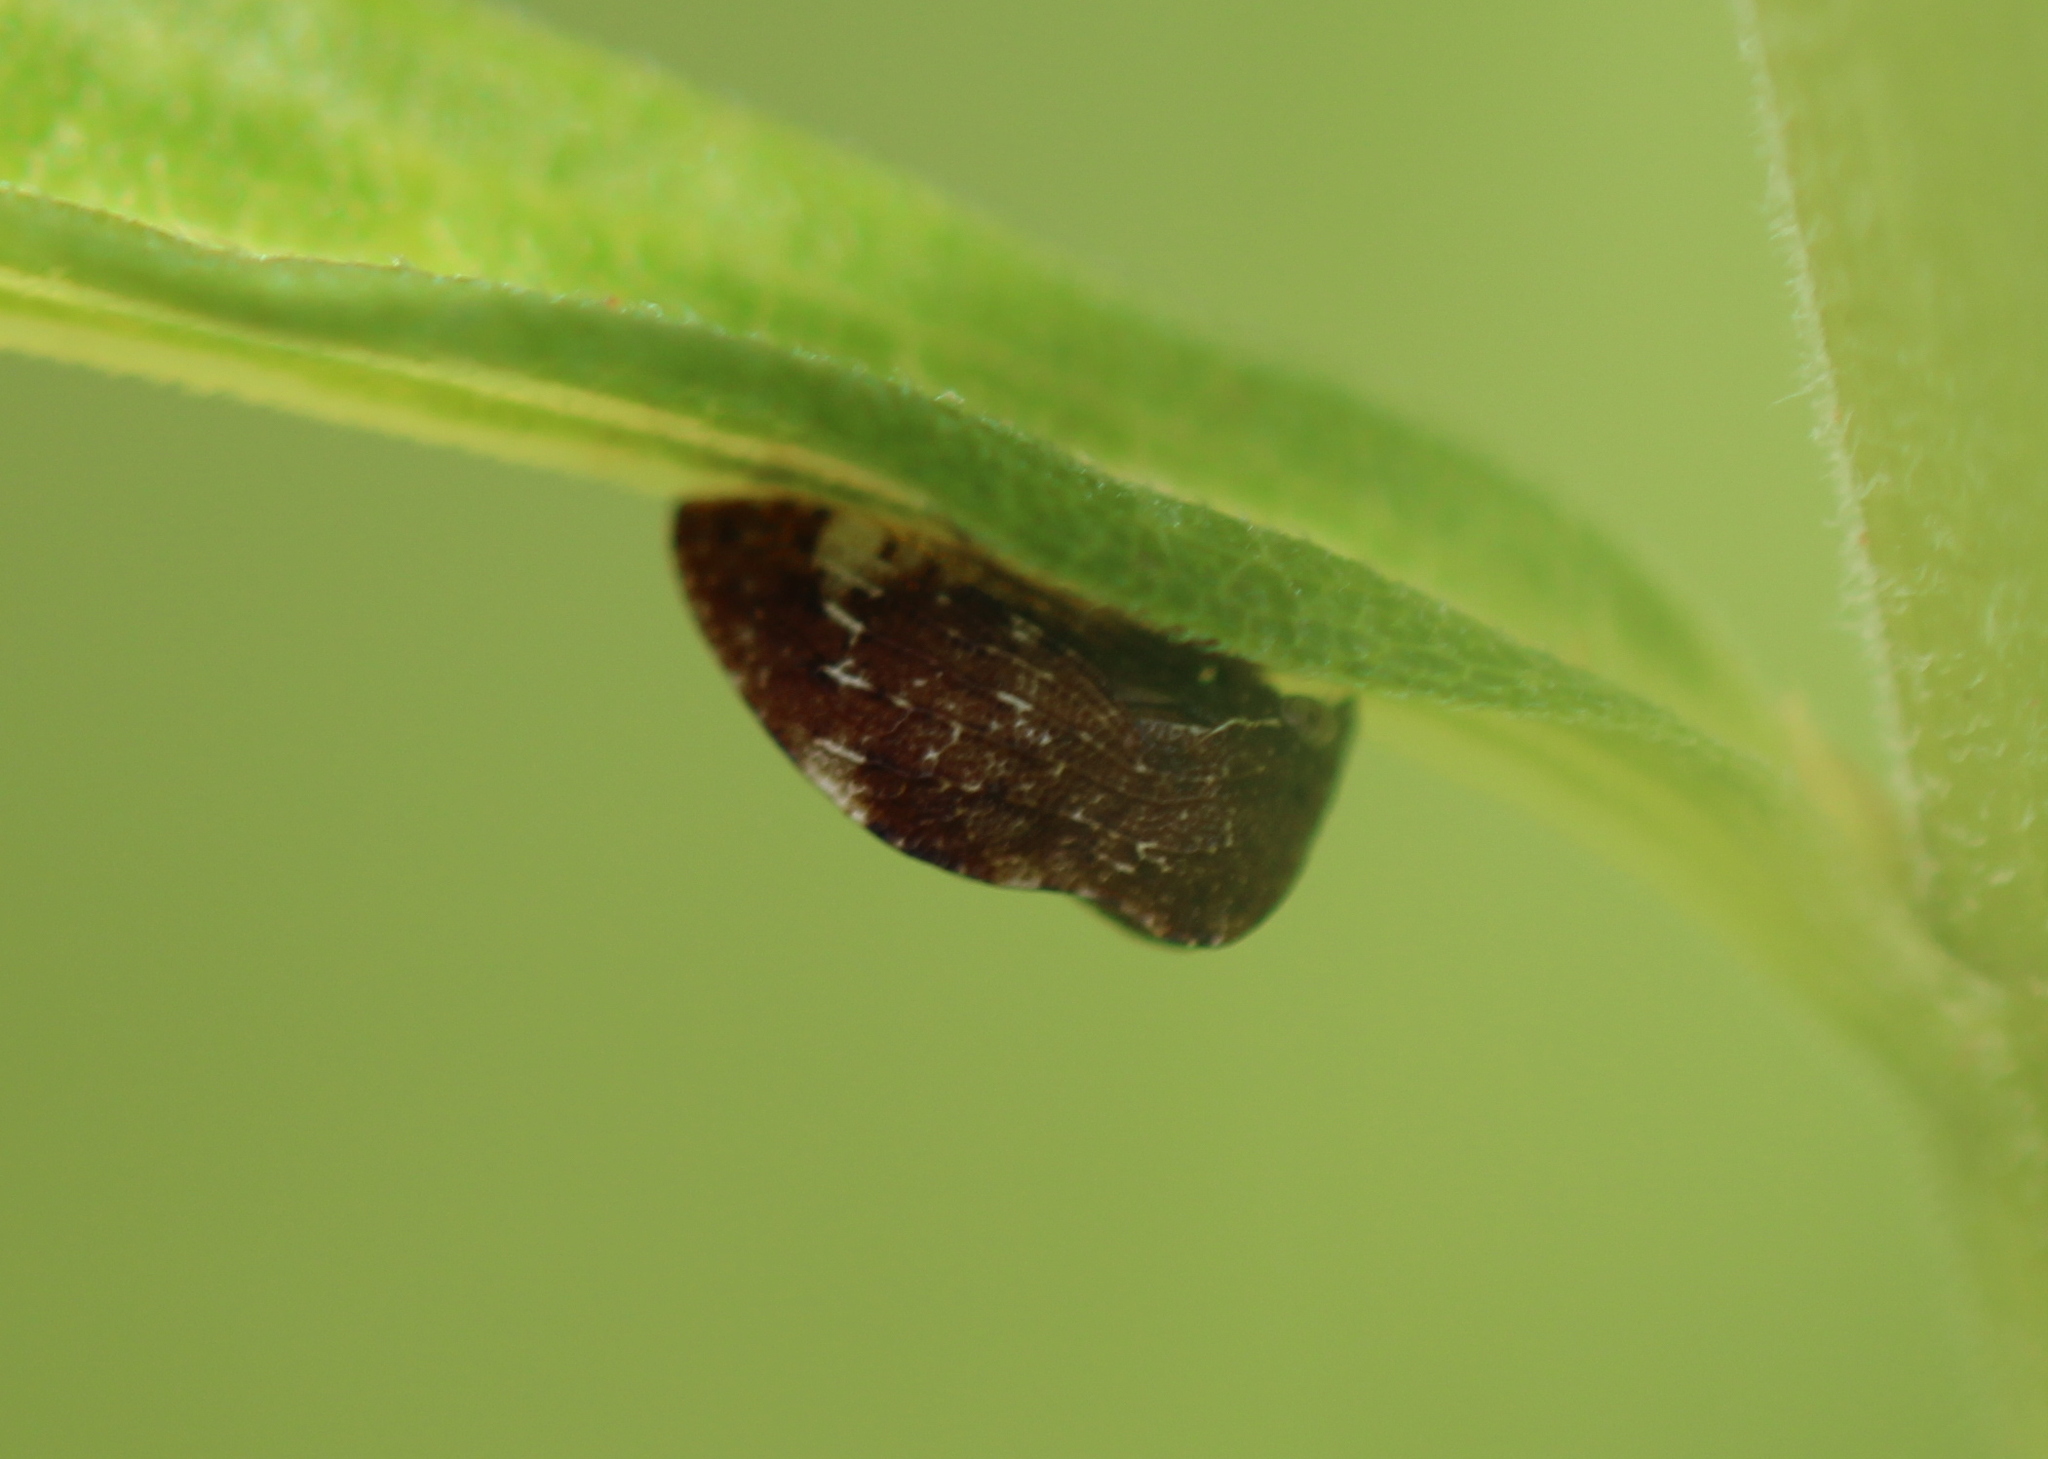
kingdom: Animalia
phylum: Arthropoda
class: Insecta
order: Hemiptera
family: Membracidae
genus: Publilia
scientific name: Publilia concava
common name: Aster treehopper
